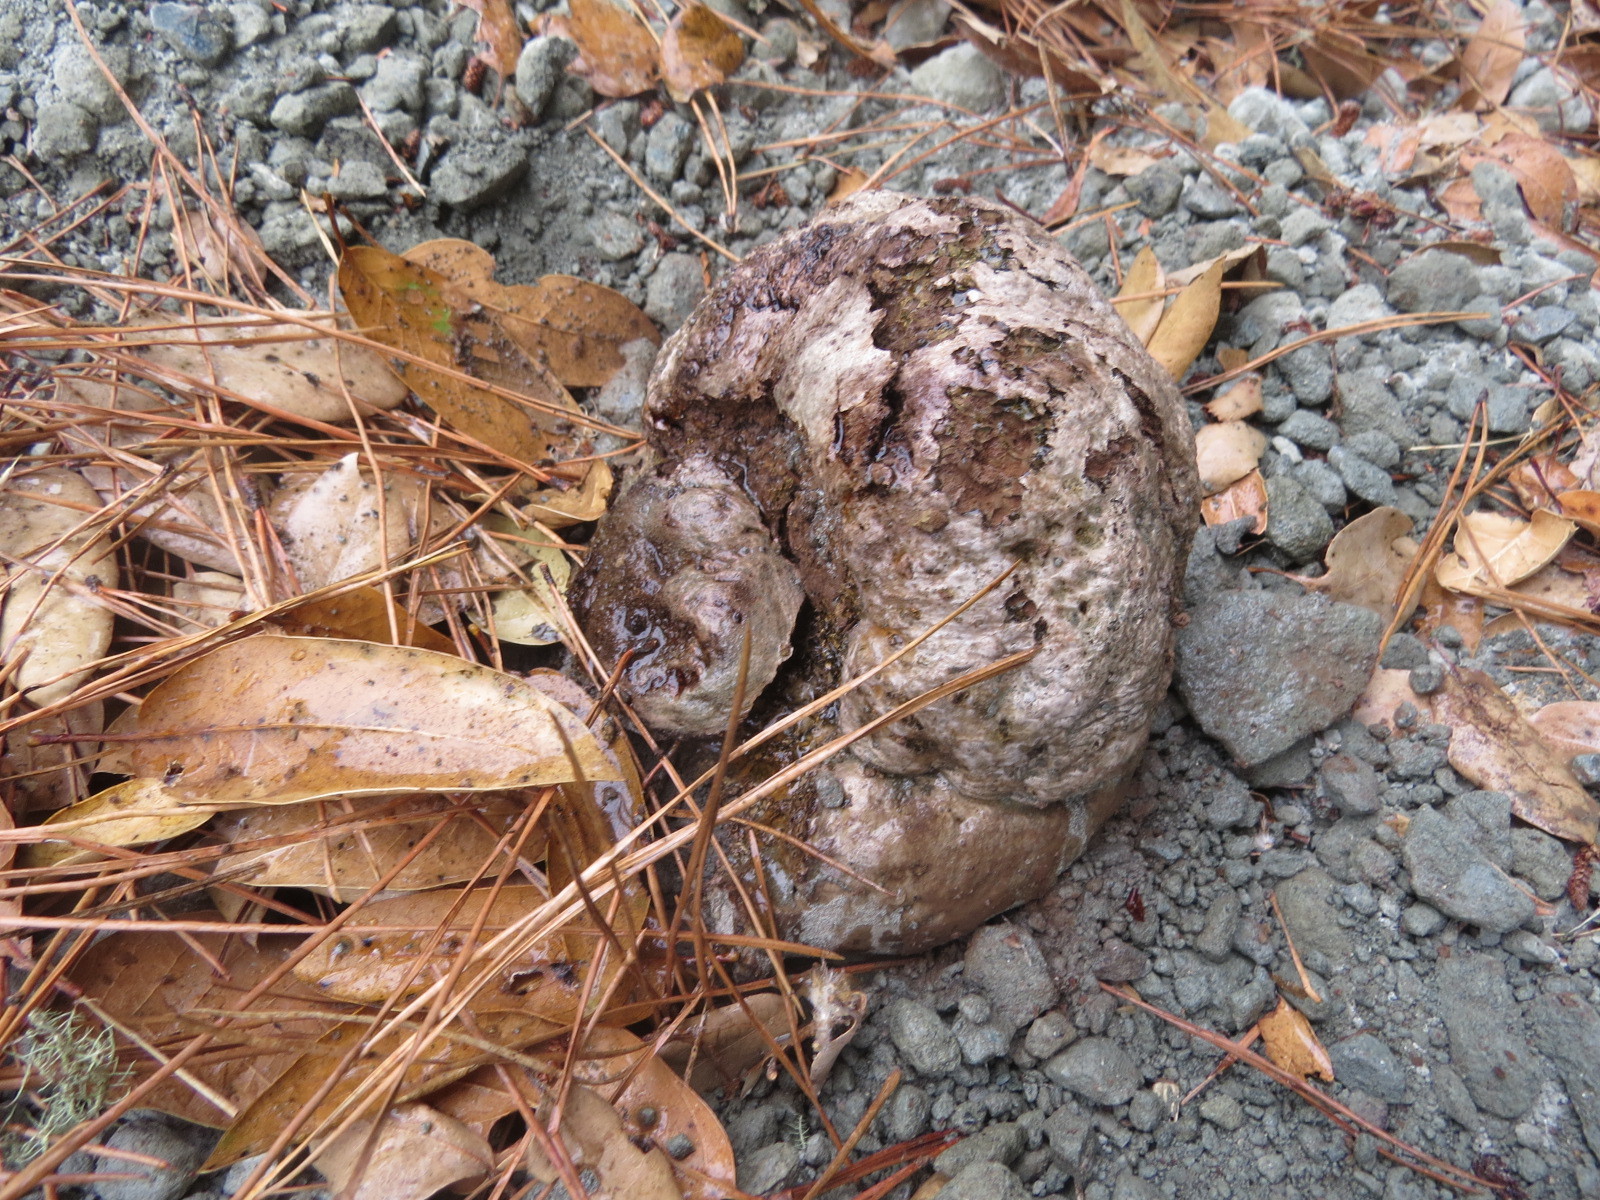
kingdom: Fungi
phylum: Basidiomycota
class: Agaricomycetes
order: Boletales
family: Sclerodermataceae
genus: Pisolithus
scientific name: Pisolithus tinctorius
